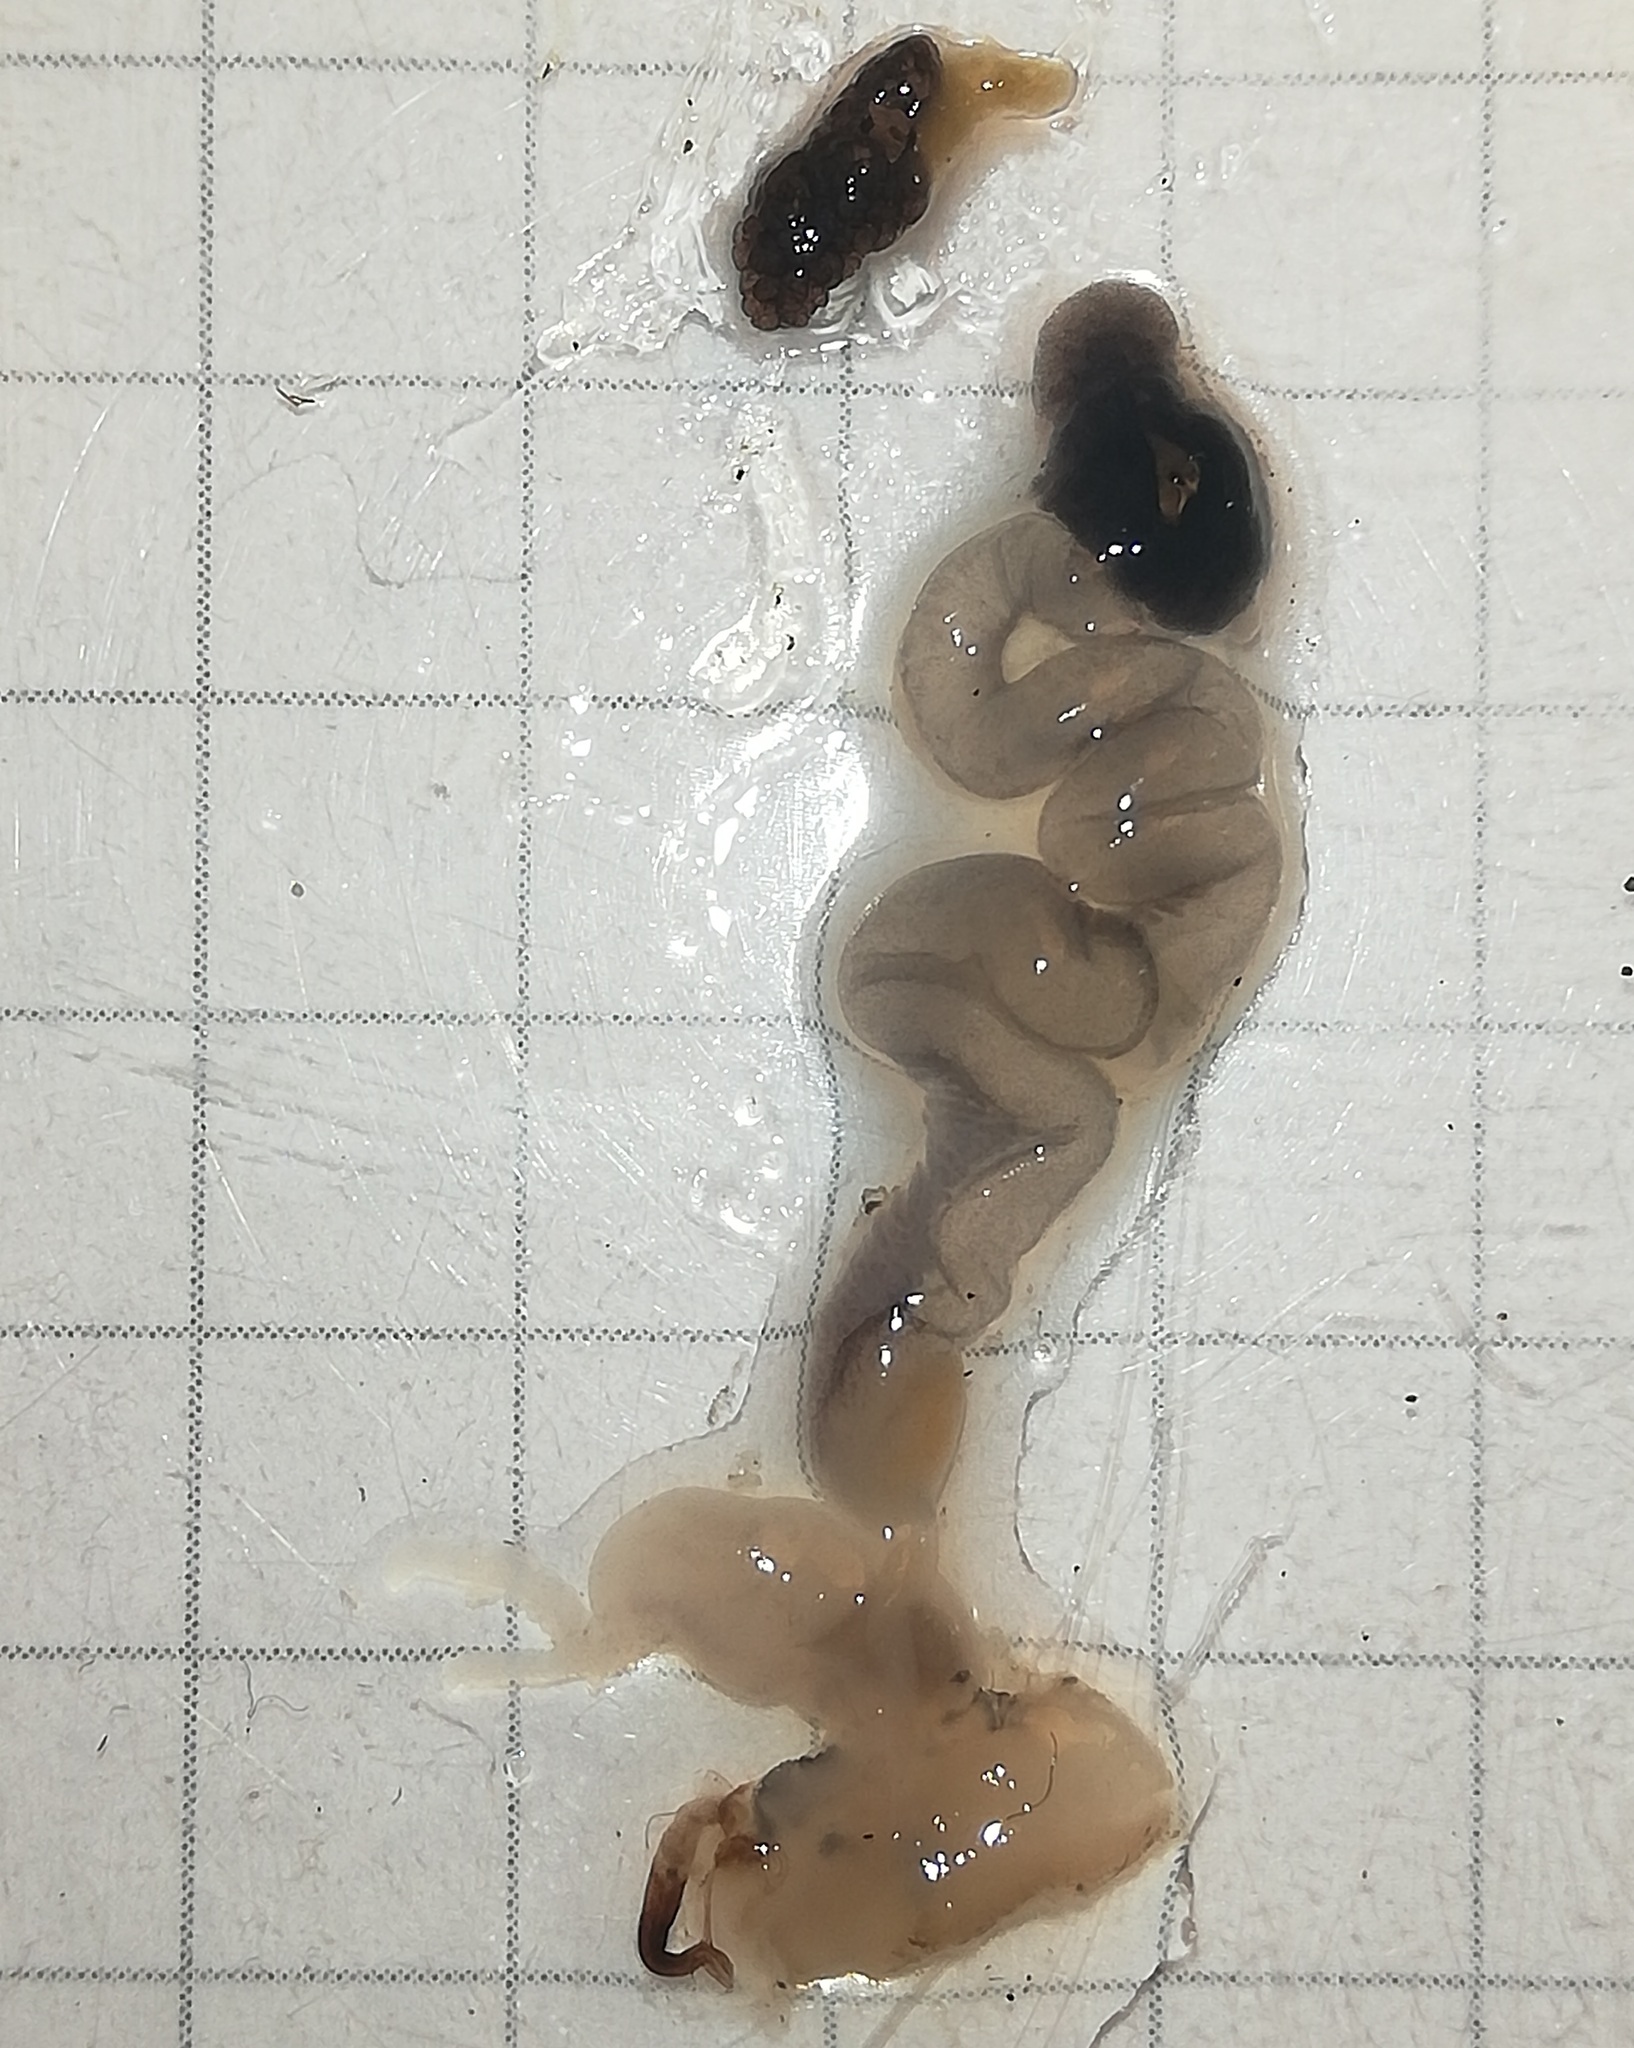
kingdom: Animalia
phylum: Mollusca
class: Gastropoda
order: Stylommatophora
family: Agriolimacidae
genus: Deroceras
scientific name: Deroceras reticulatum
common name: Gray field slug
